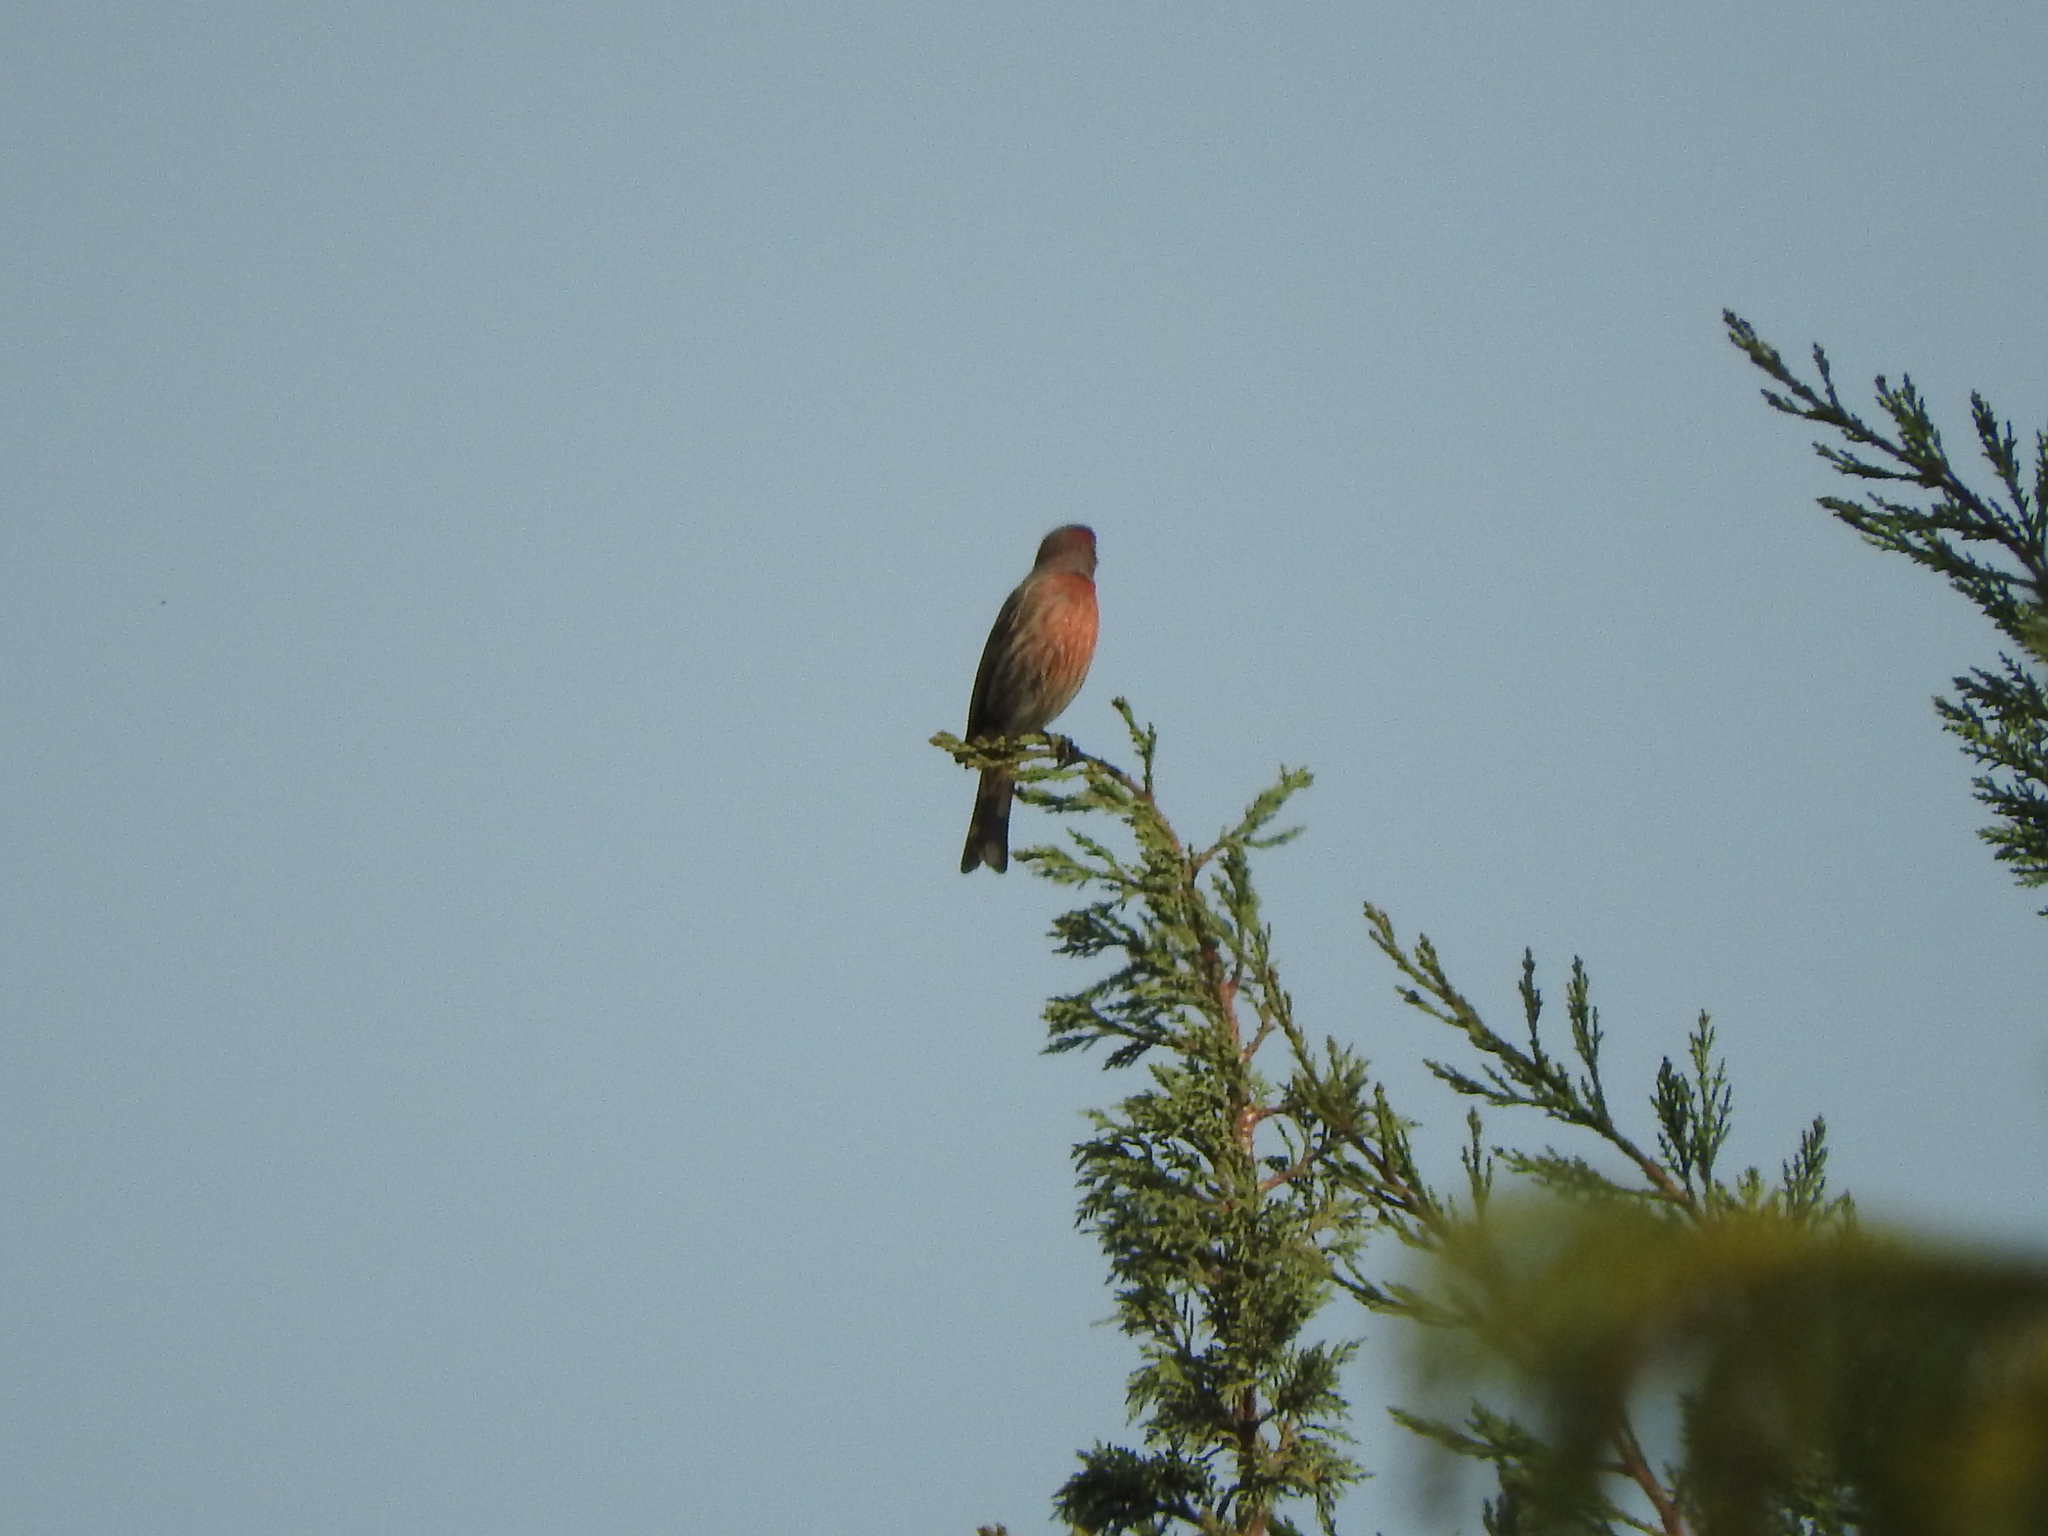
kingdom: Animalia
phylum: Chordata
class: Aves
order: Passeriformes
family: Fringillidae
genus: Haemorhous
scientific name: Haemorhous mexicanus
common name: House finch
